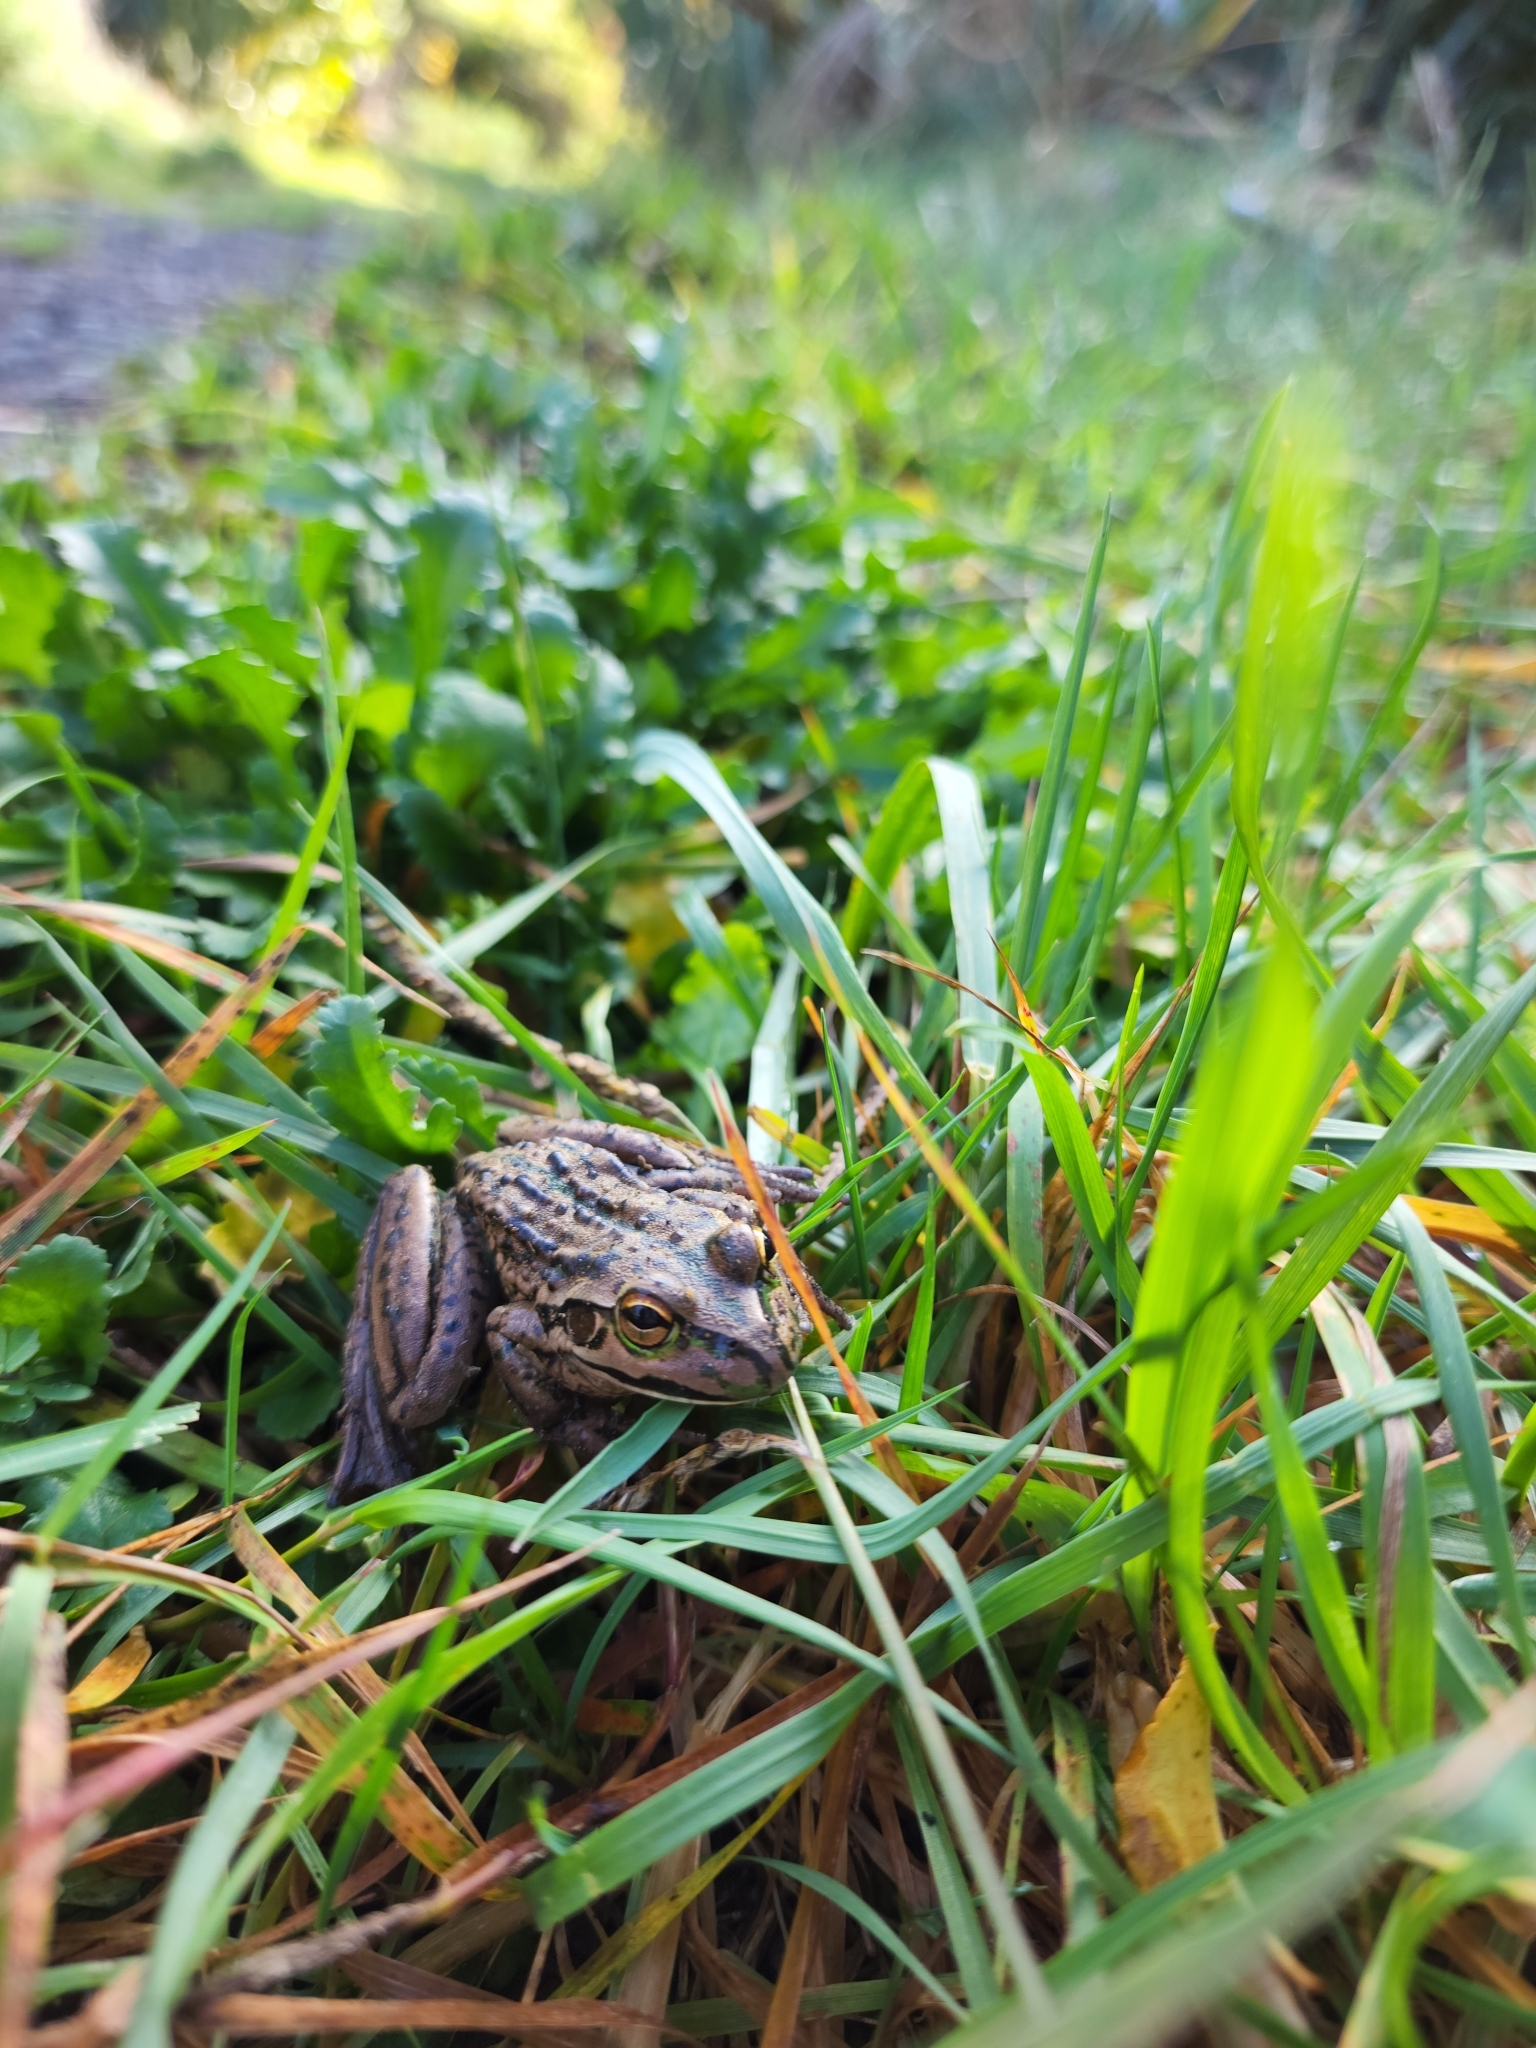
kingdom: Animalia
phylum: Chordata
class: Amphibia
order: Anura
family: Pelodryadidae
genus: Ranoidea
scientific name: Ranoidea raniformis
